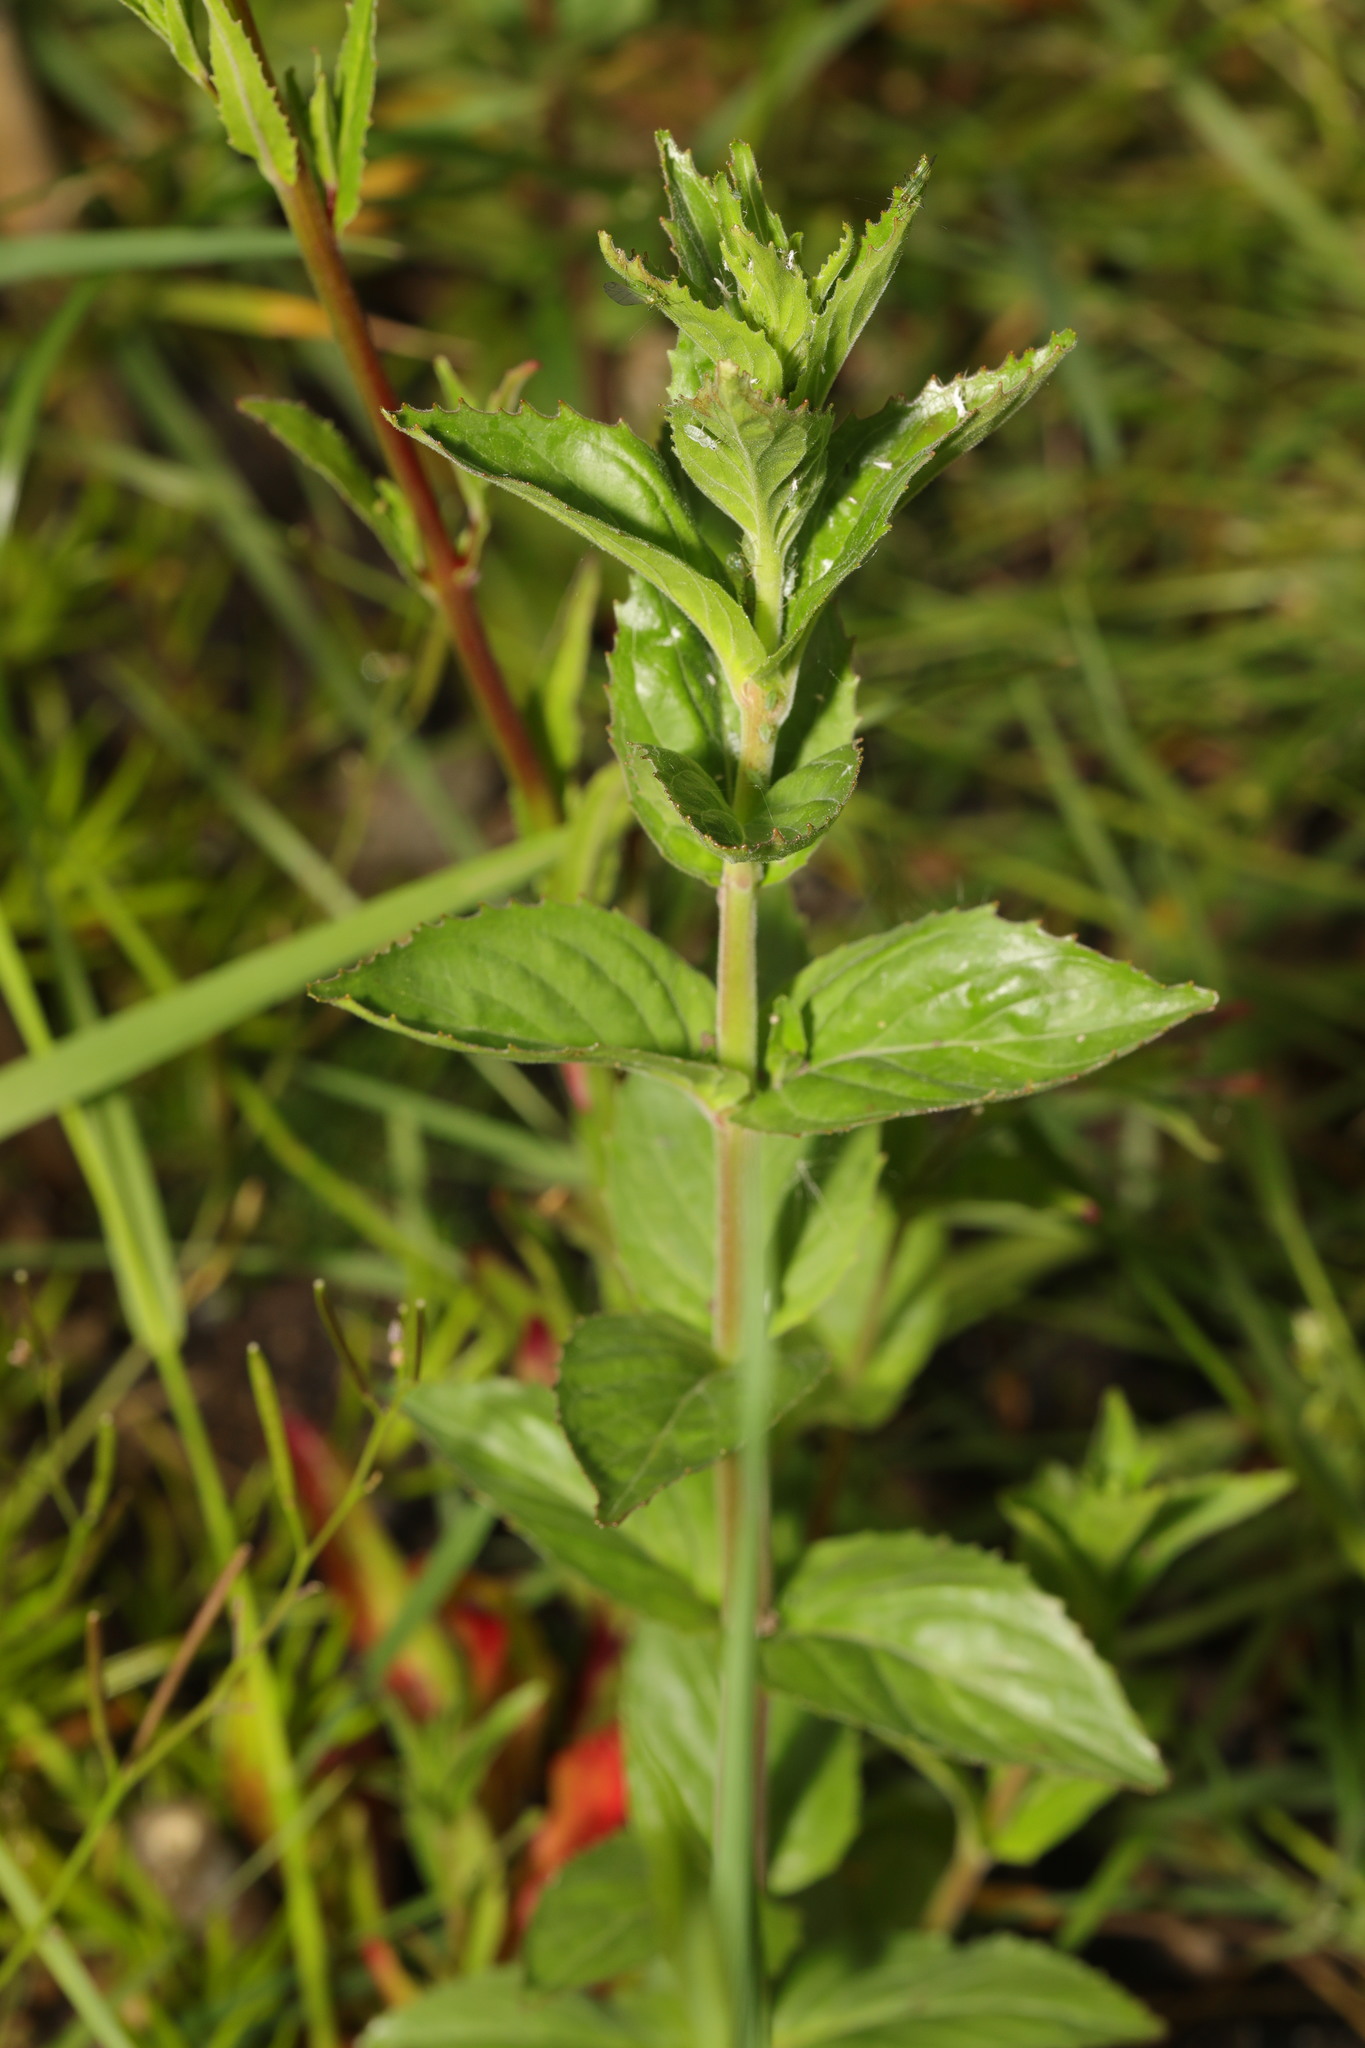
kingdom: Plantae
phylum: Tracheophyta
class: Magnoliopsida
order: Myrtales
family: Onagraceae
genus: Epilobium
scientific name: Epilobium montanum
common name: Broad-leaved willowherb
